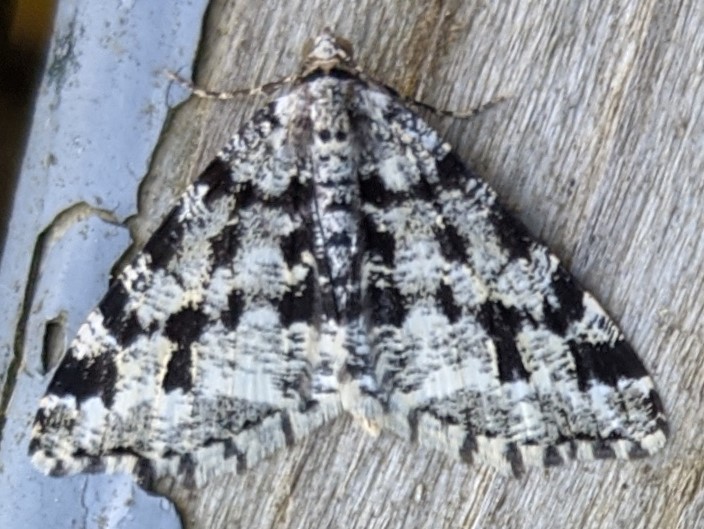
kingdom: Animalia
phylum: Arthropoda
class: Insecta
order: Lepidoptera
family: Geometridae
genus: Macaria
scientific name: Macaria oweni
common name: Owen's angle
